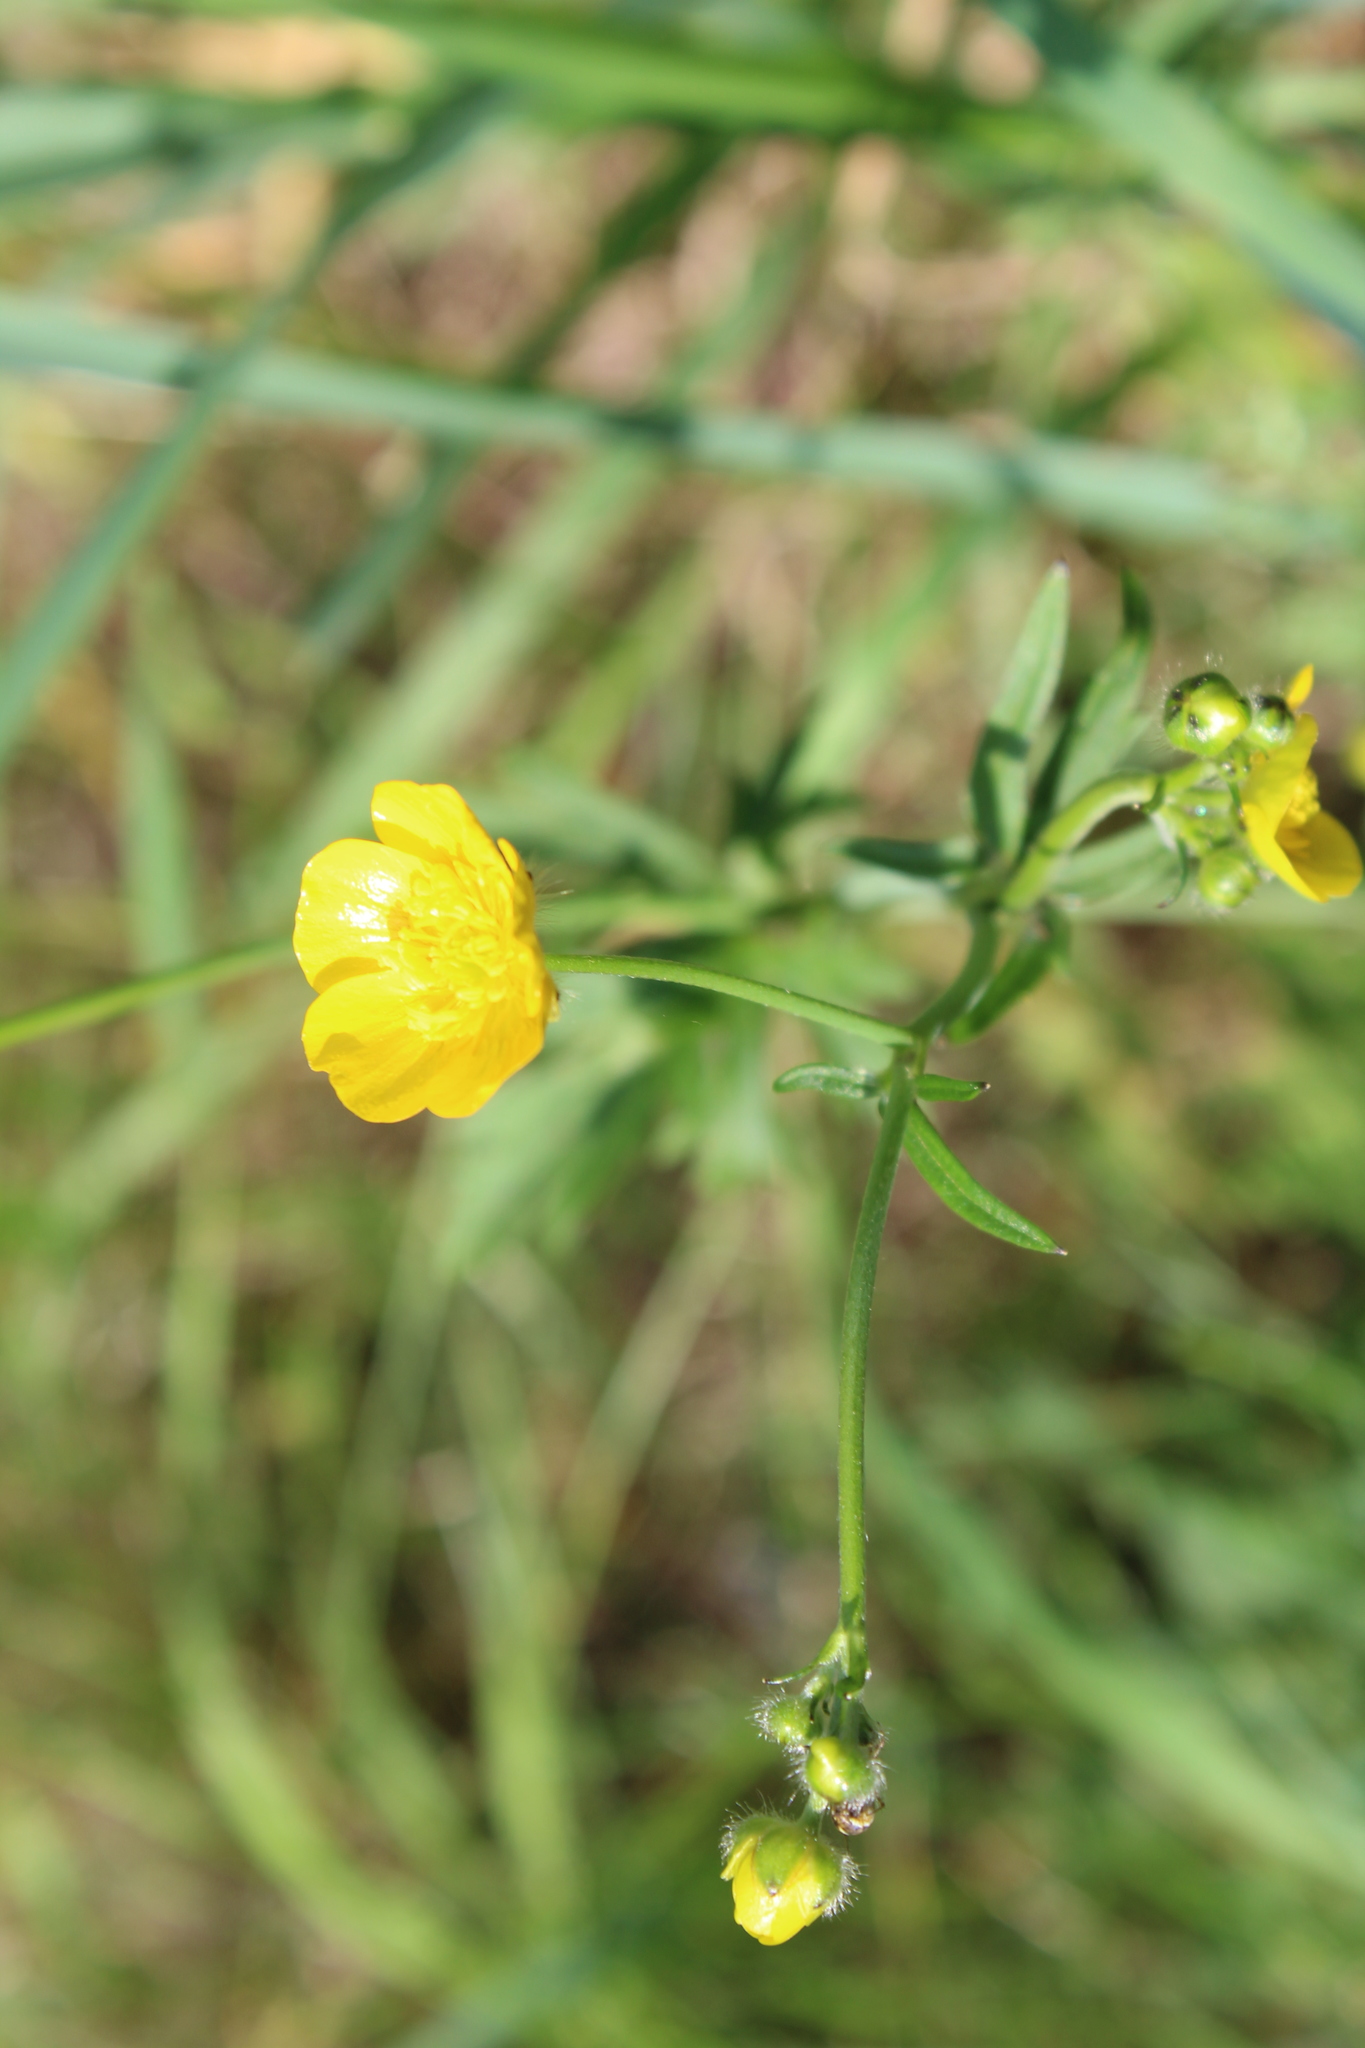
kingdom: Plantae
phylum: Tracheophyta
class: Magnoliopsida
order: Ranunculales
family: Ranunculaceae
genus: Ranunculus
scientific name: Ranunculus acris
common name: Meadow buttercup
